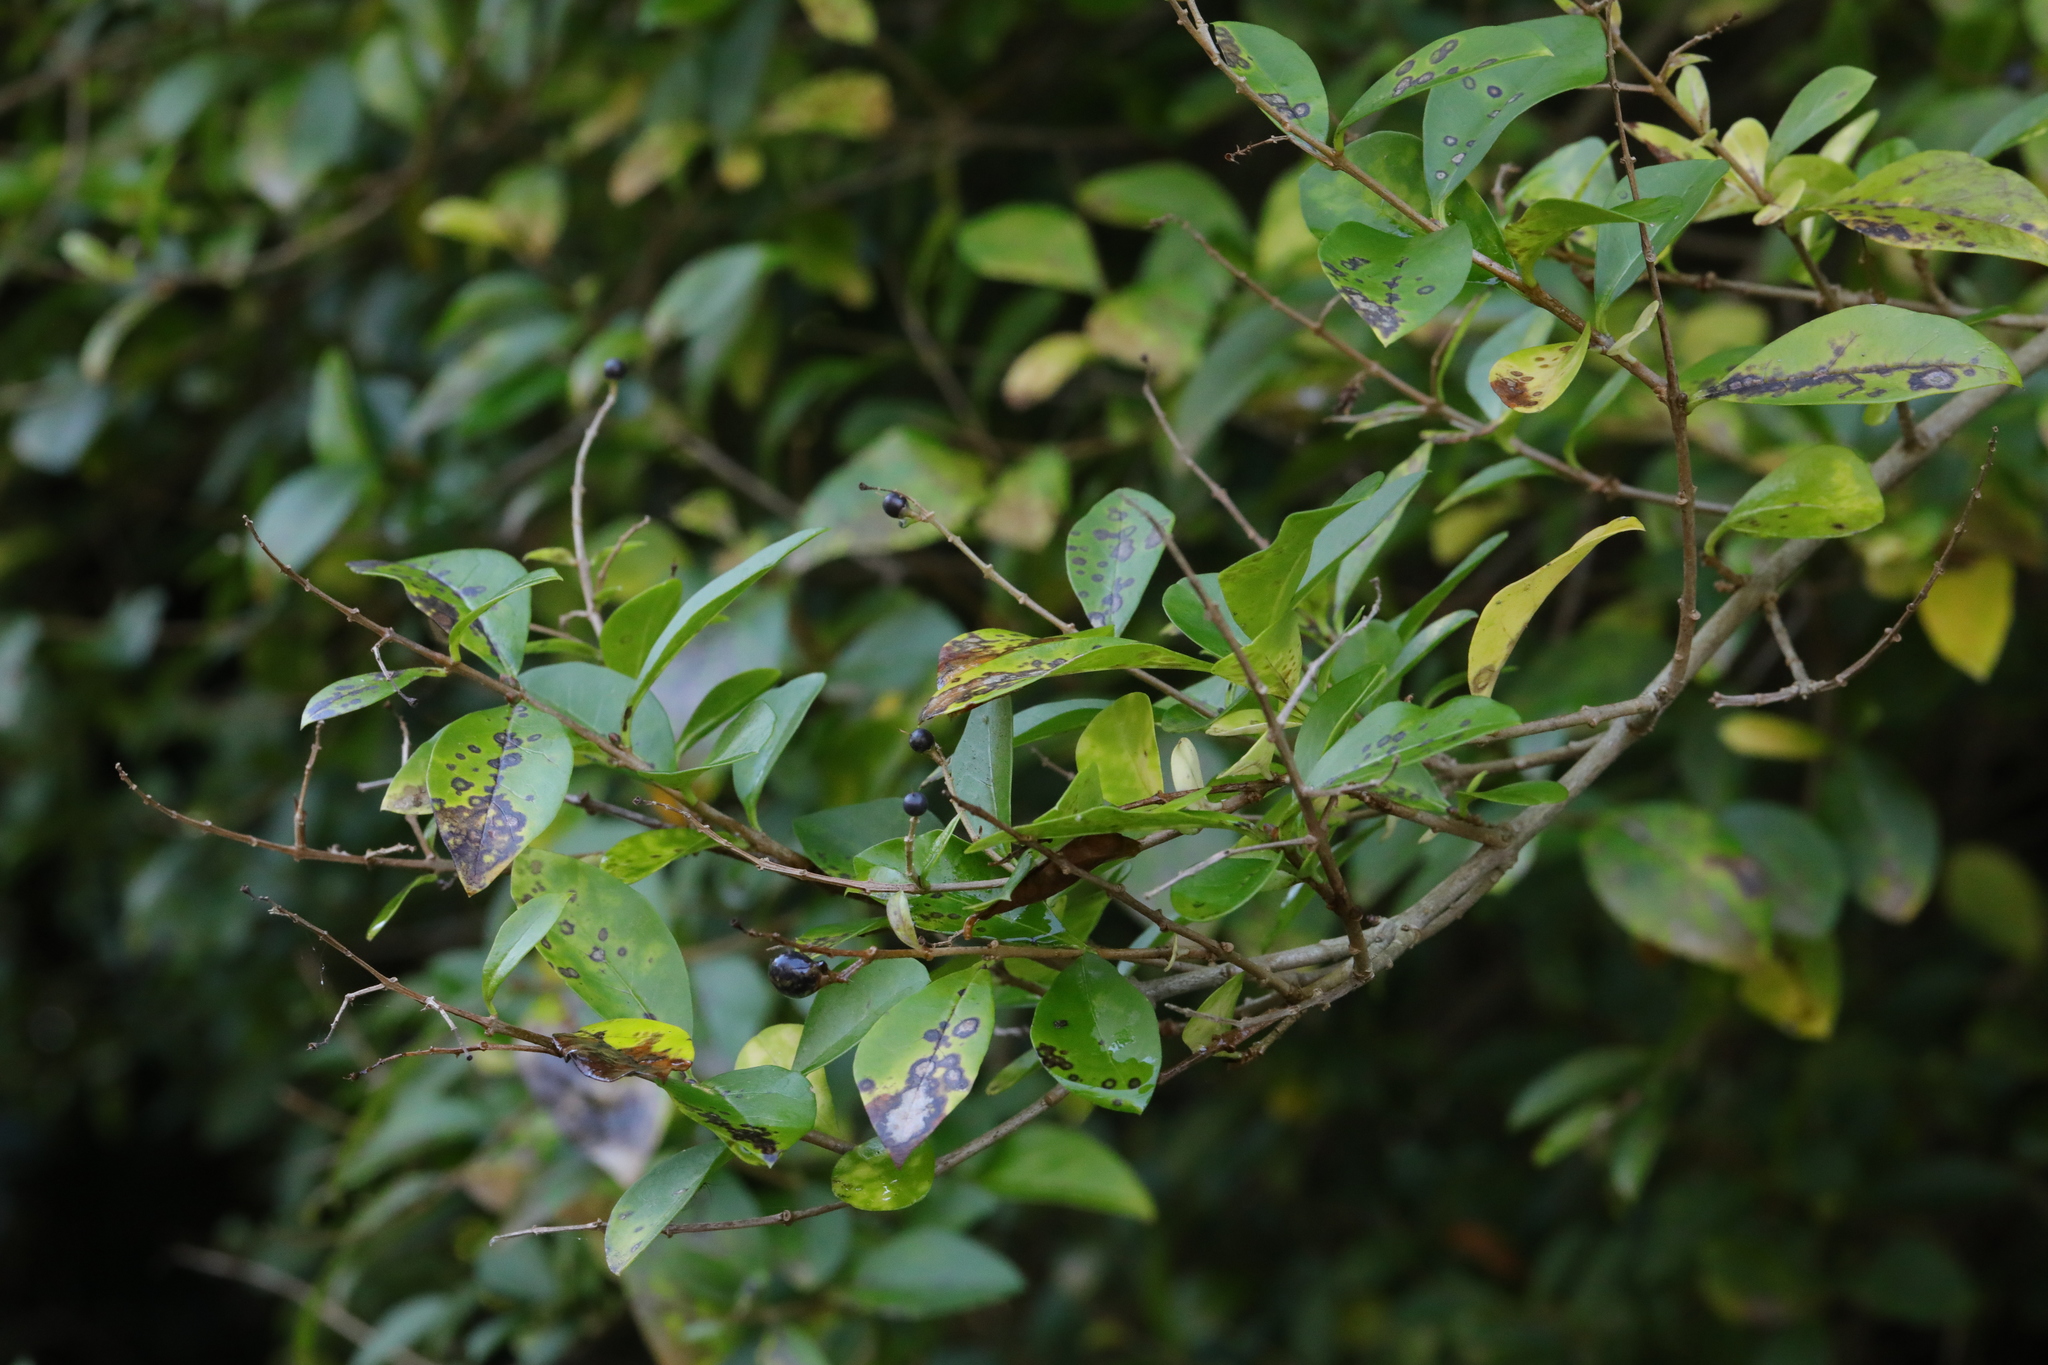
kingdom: Plantae
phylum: Tracheophyta
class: Magnoliopsida
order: Lamiales
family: Oleaceae
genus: Ligustrum
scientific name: Ligustrum ovalifolium
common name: California privet
